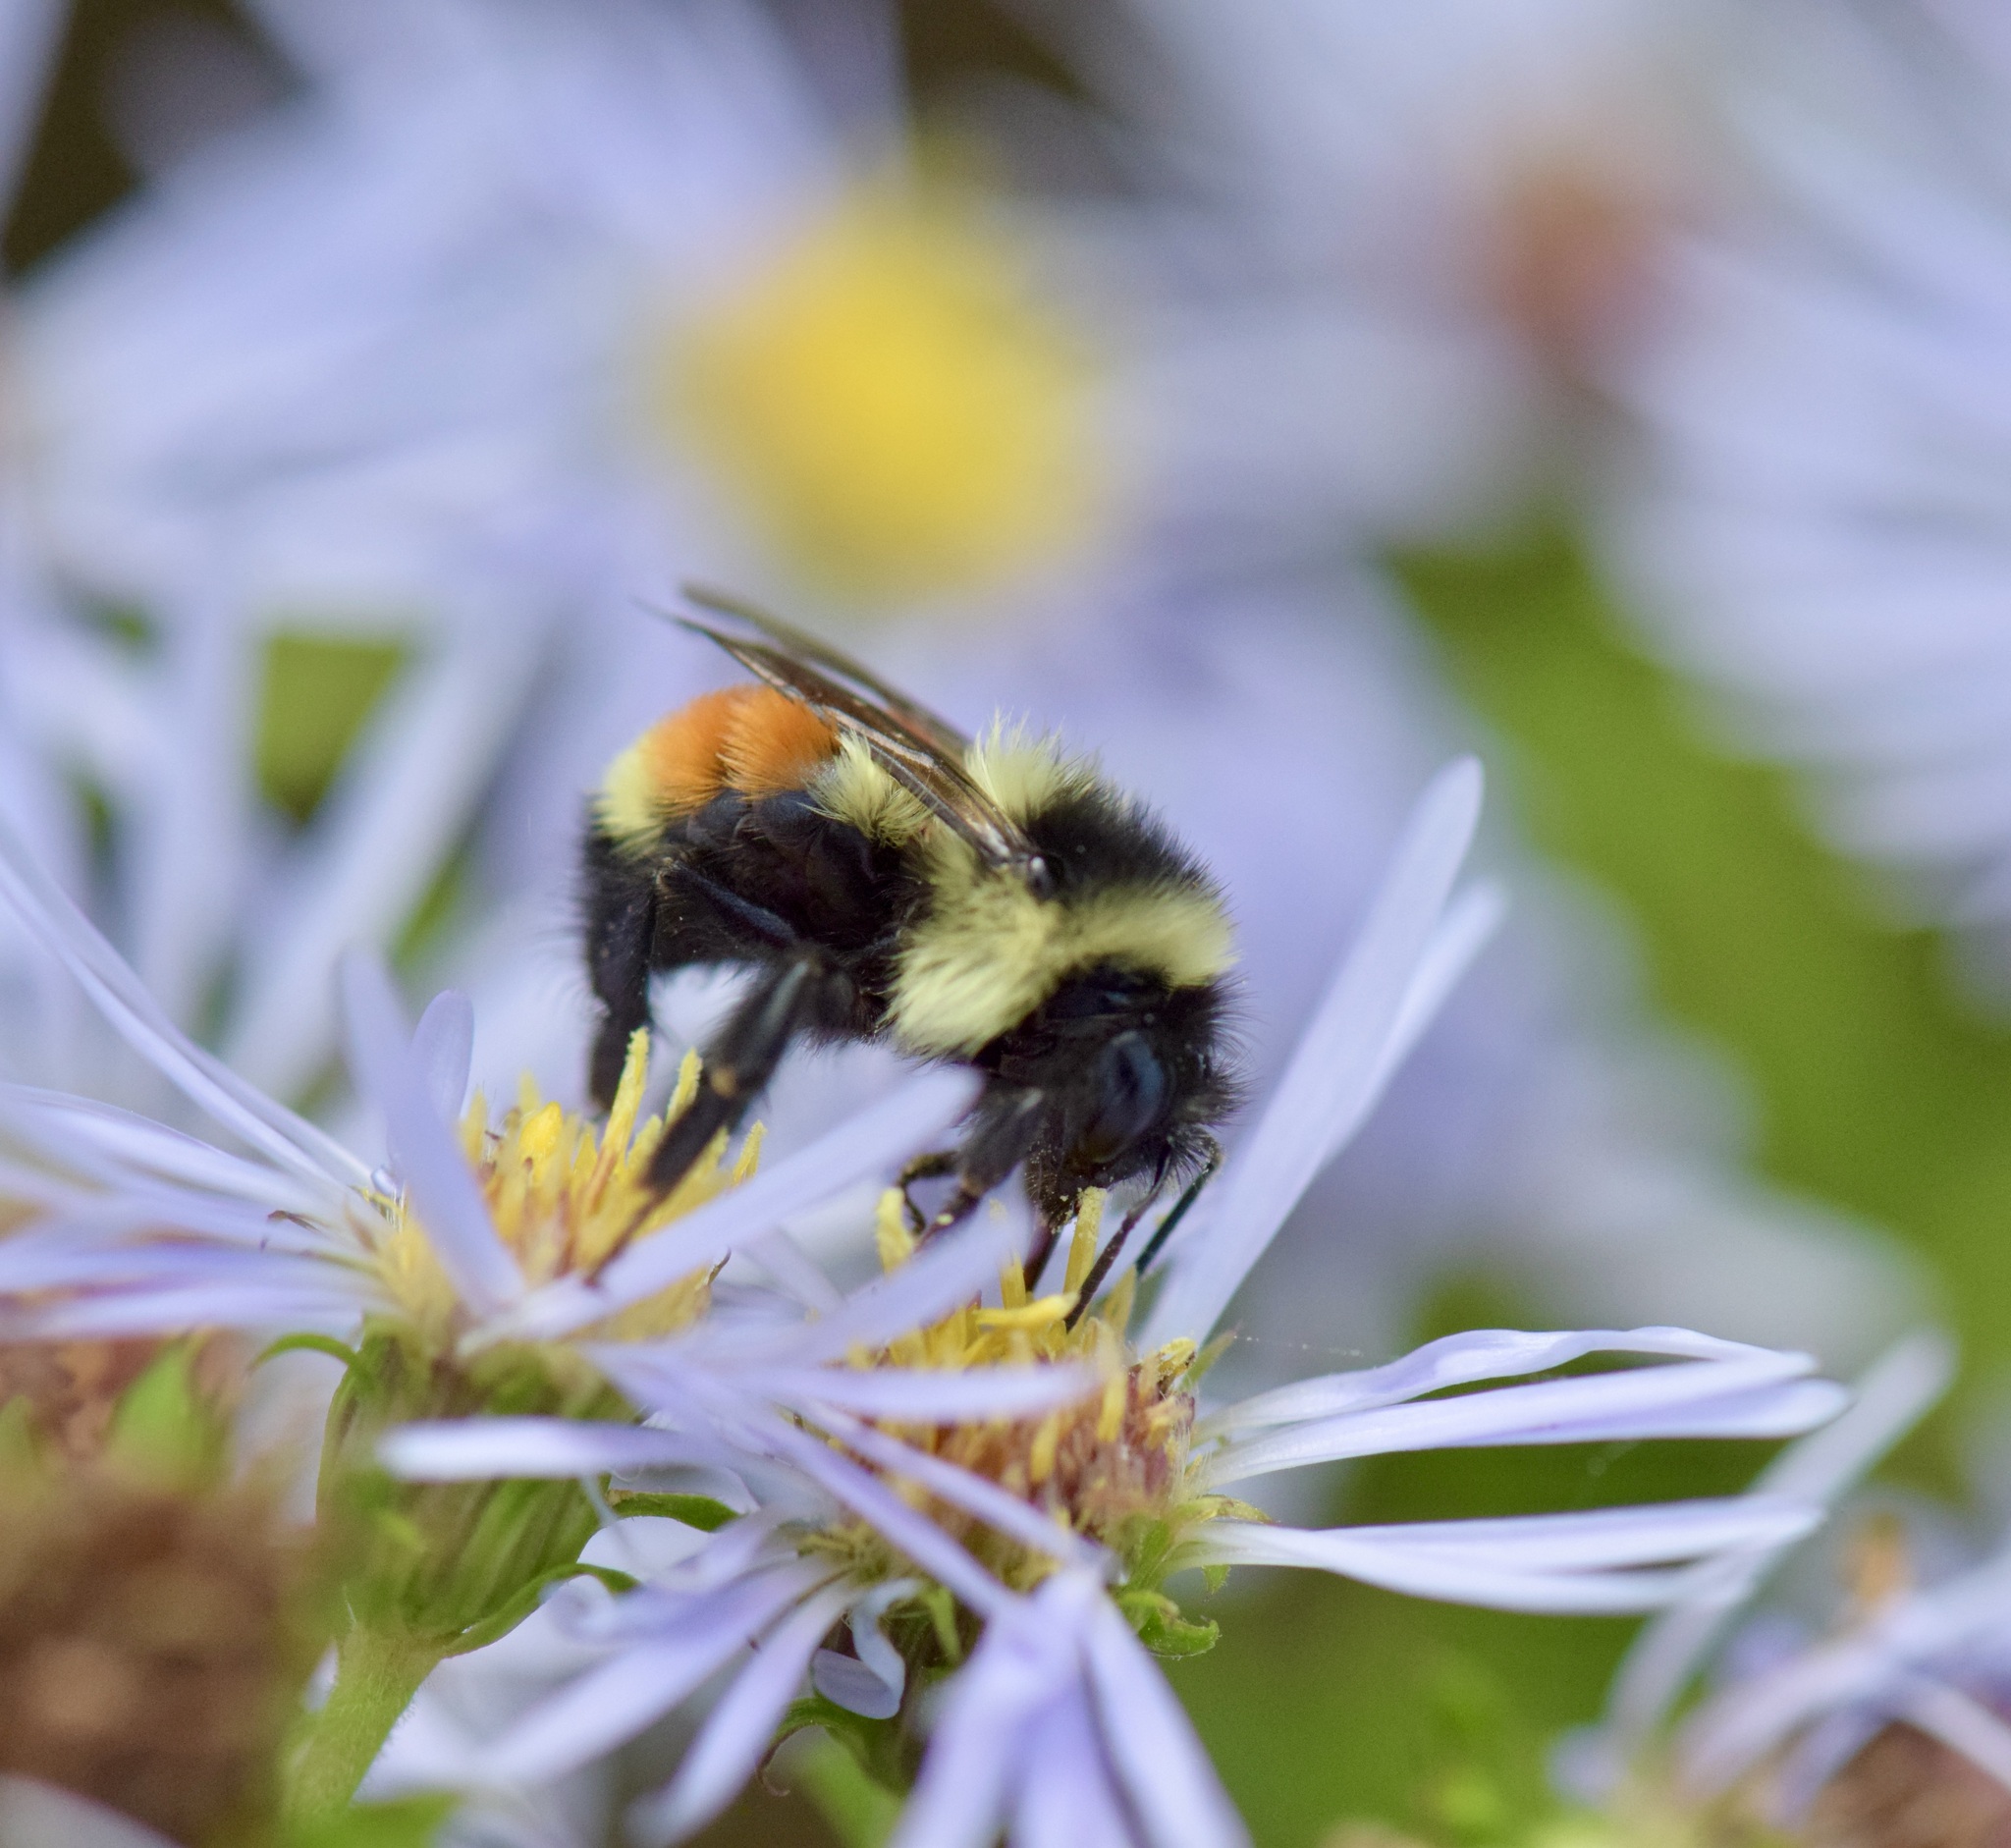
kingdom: Animalia
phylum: Arthropoda
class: Insecta
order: Hymenoptera
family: Apidae
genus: Bombus
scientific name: Bombus ternarius
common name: Tri-colored bumble bee
